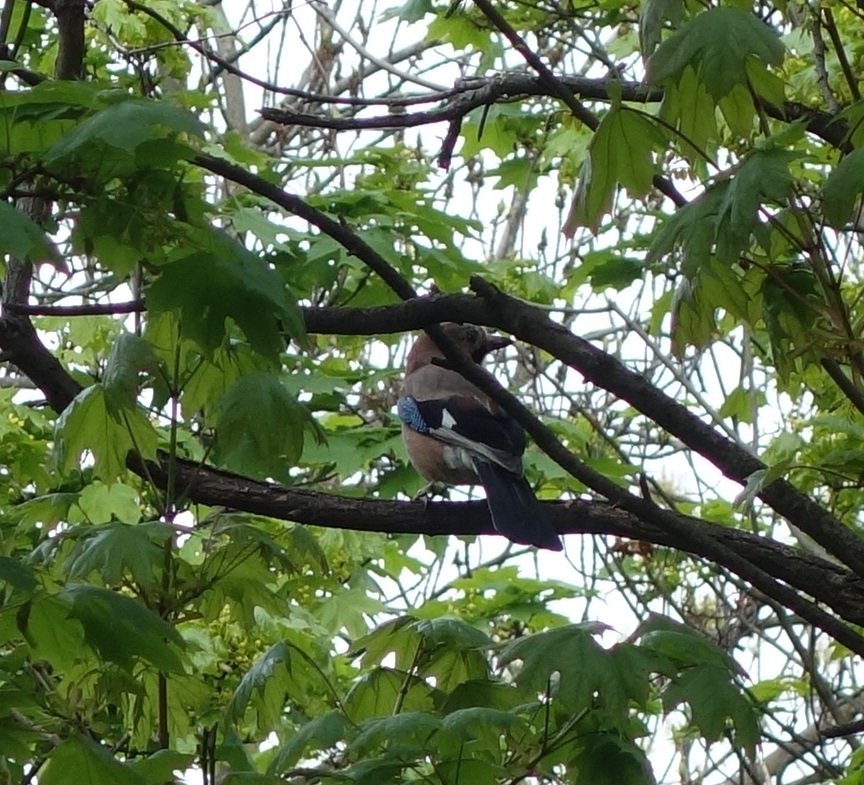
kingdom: Animalia
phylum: Chordata
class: Aves
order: Passeriformes
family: Corvidae
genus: Garrulus
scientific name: Garrulus glandarius
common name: Eurasian jay
